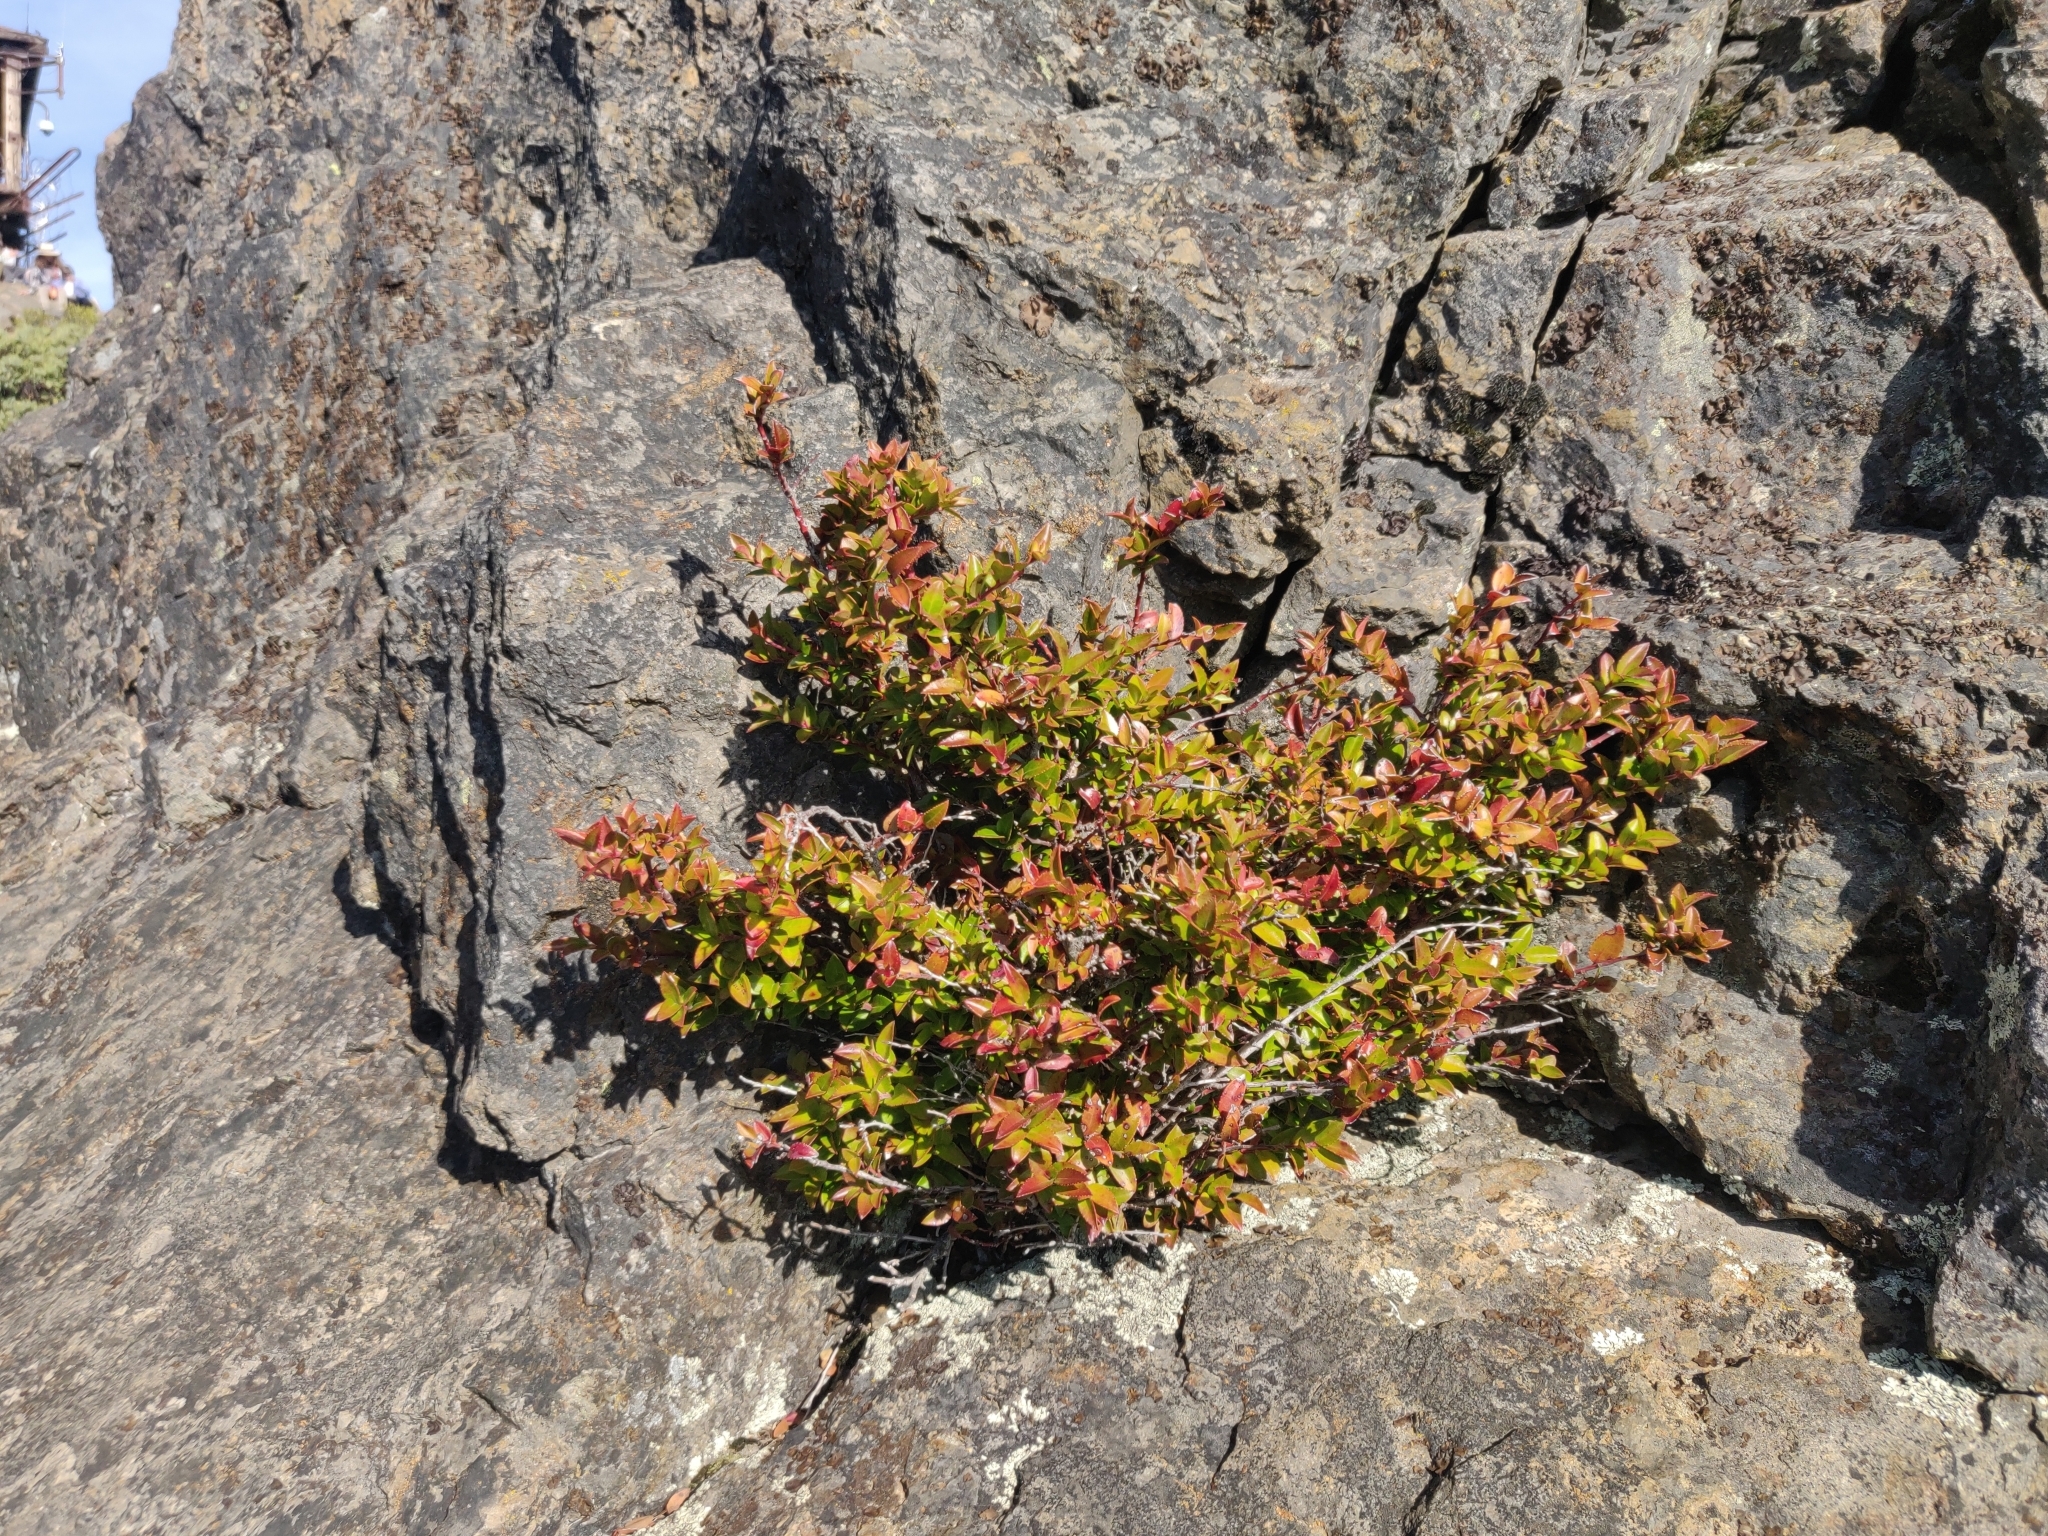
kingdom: Plantae
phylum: Tracheophyta
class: Magnoliopsida
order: Ericales
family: Ericaceae
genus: Vaccinium
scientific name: Vaccinium ovatum
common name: California-huckleberry
